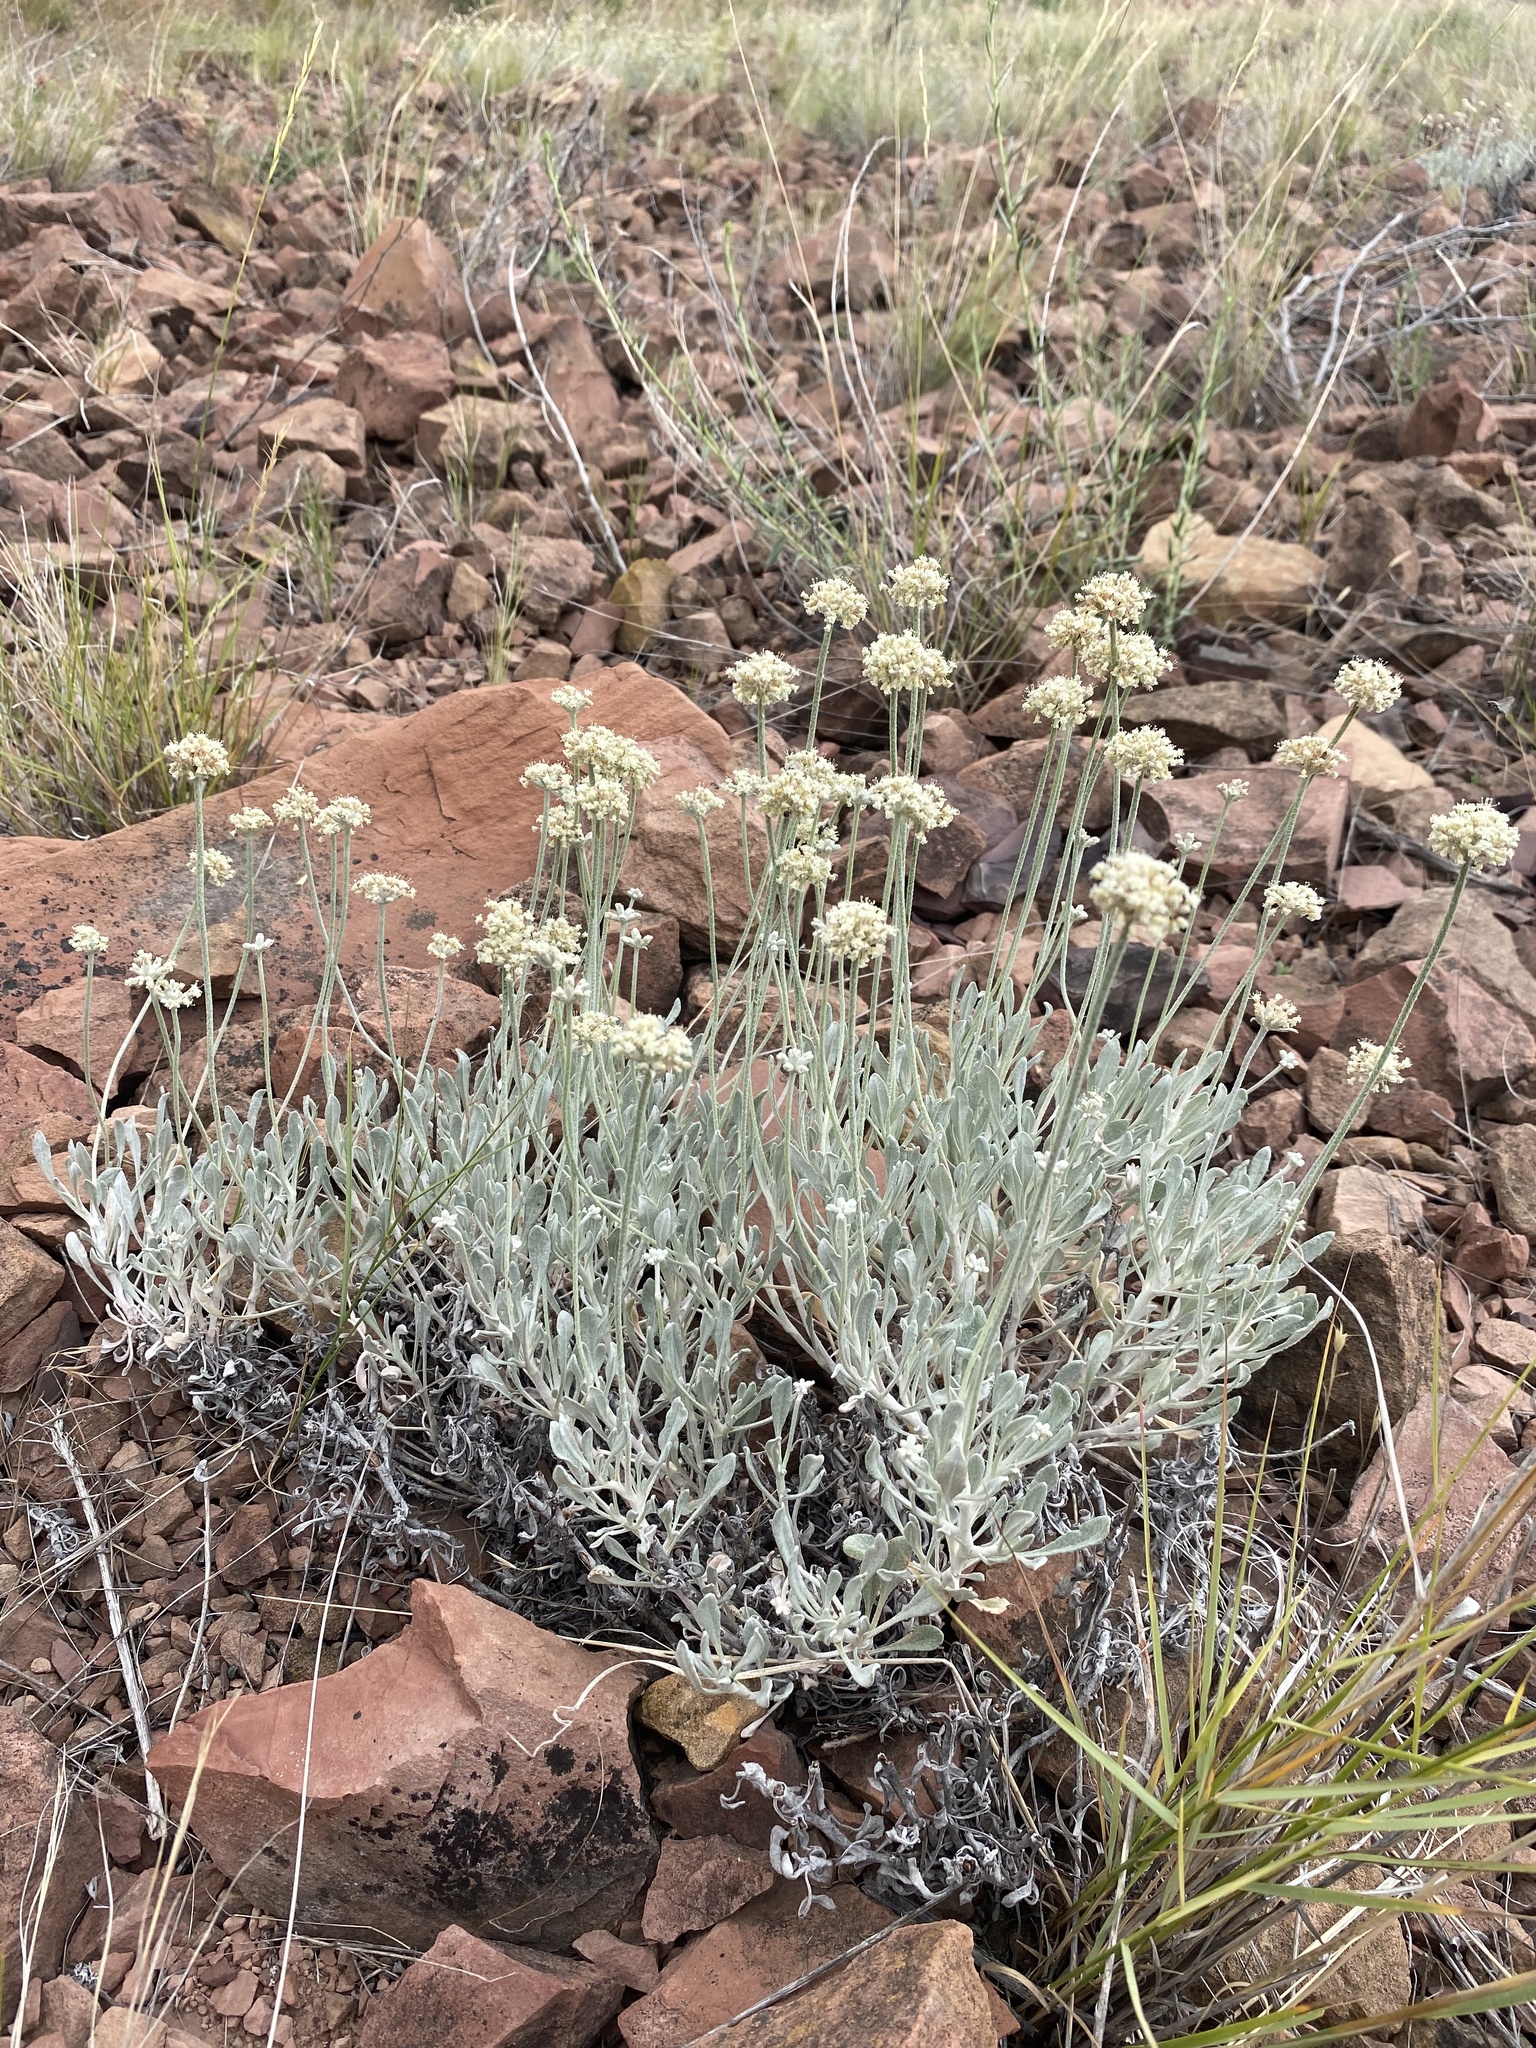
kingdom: Plantae
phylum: Tracheophyta
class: Magnoliopsida
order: Caryophyllales
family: Polygonaceae
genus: Eriogonum
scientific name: Eriogonum pauciflorum
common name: Few-flower wild buckwheat
